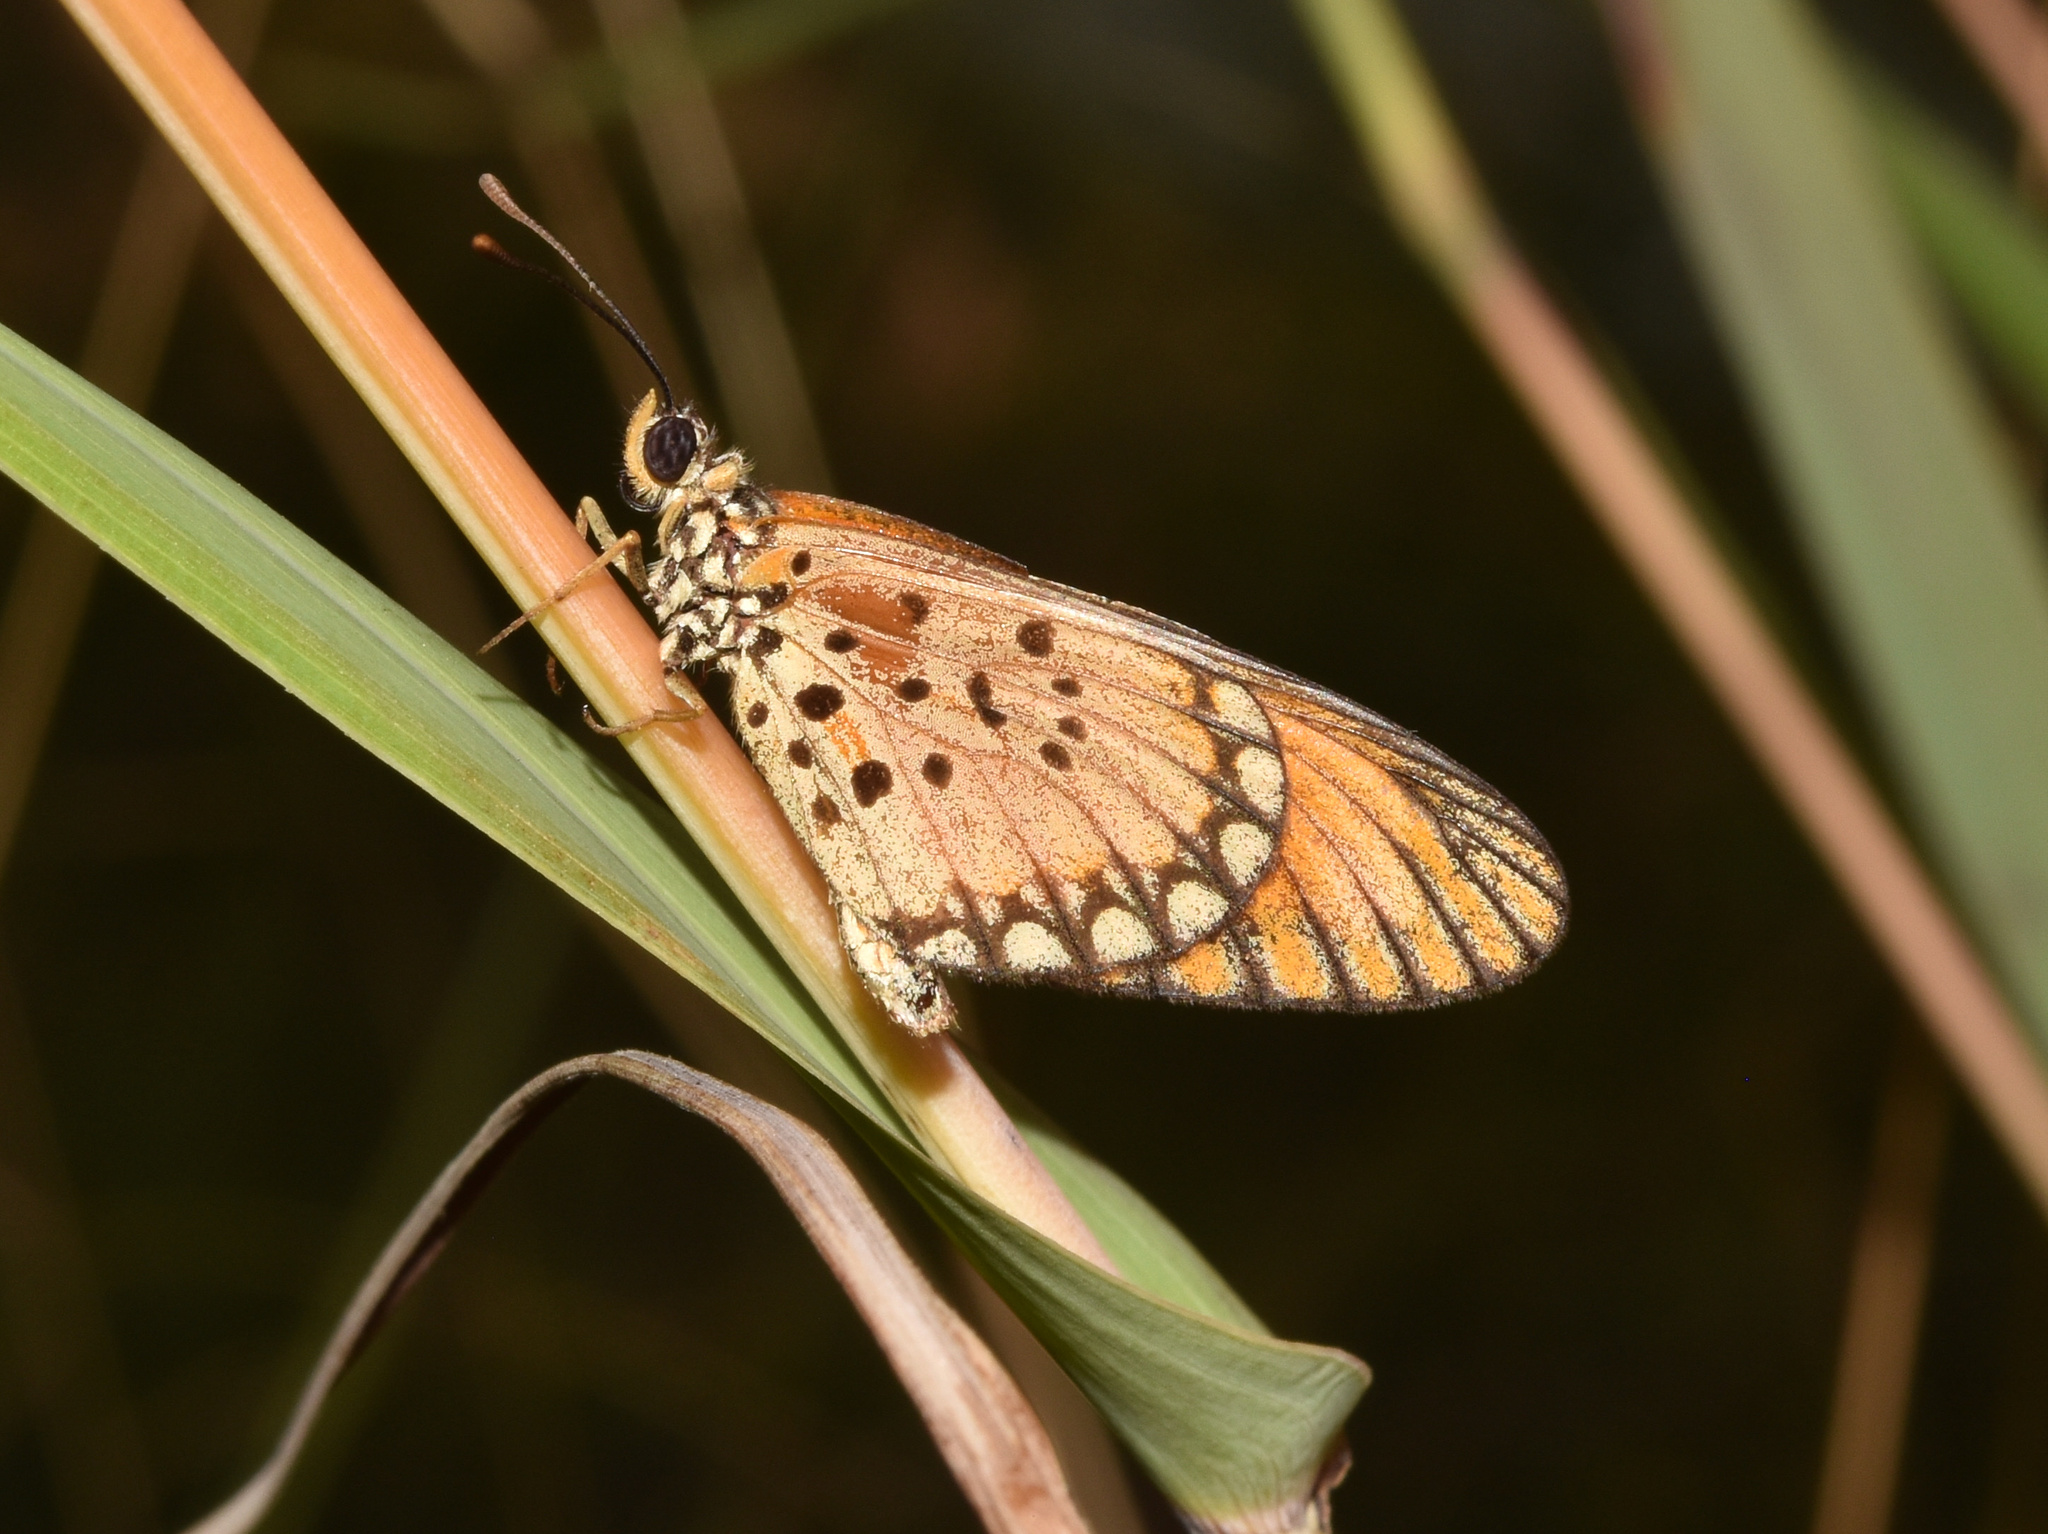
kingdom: Animalia
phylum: Arthropoda
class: Insecta
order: Lepidoptera
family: Nymphalidae
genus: Acraea
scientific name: Acraea Telchinia serena
